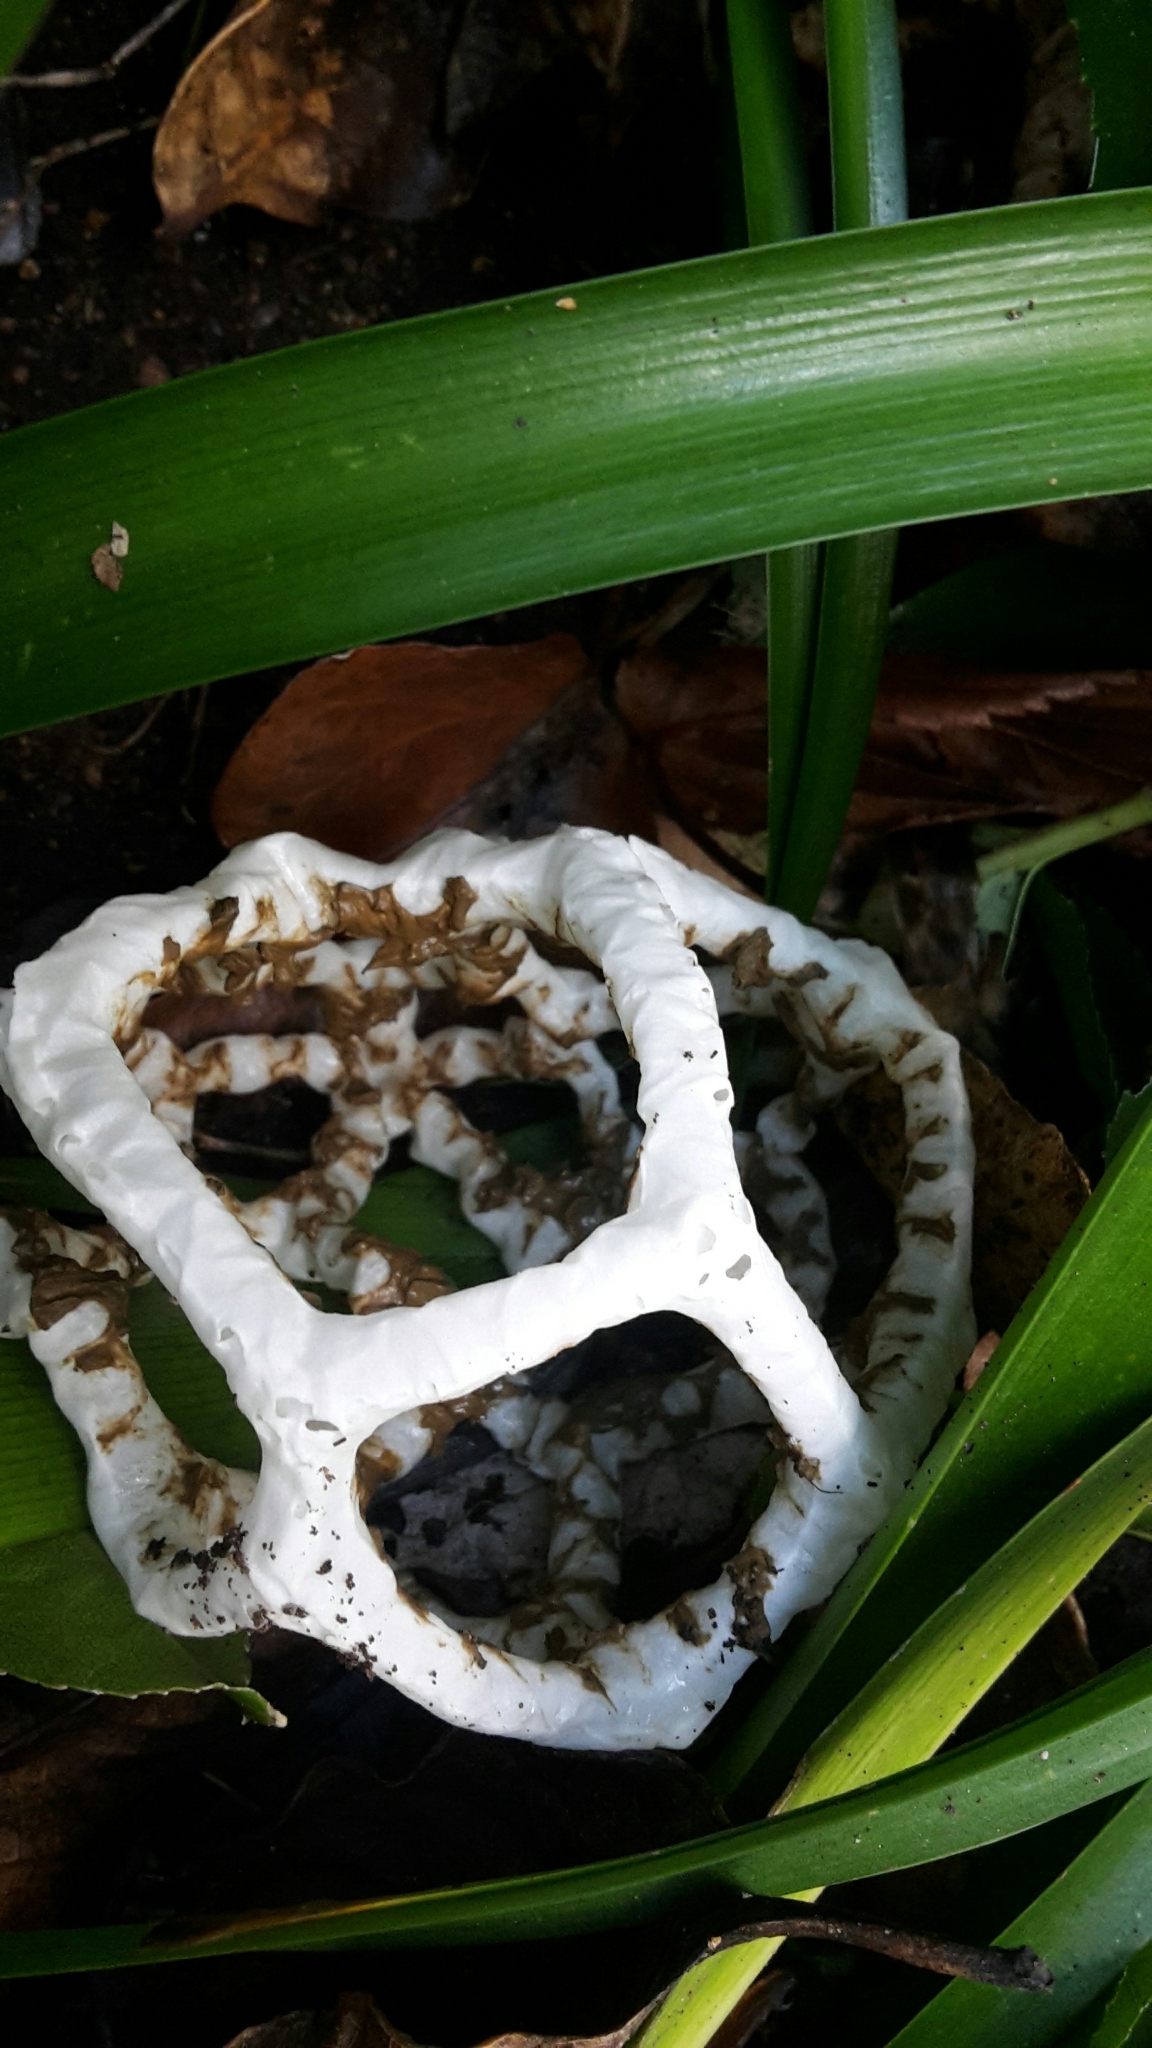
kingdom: Fungi
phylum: Basidiomycota
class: Agaricomycetes
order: Phallales
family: Phallaceae
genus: Ileodictyon
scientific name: Ileodictyon cibarium
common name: Basket fungus
